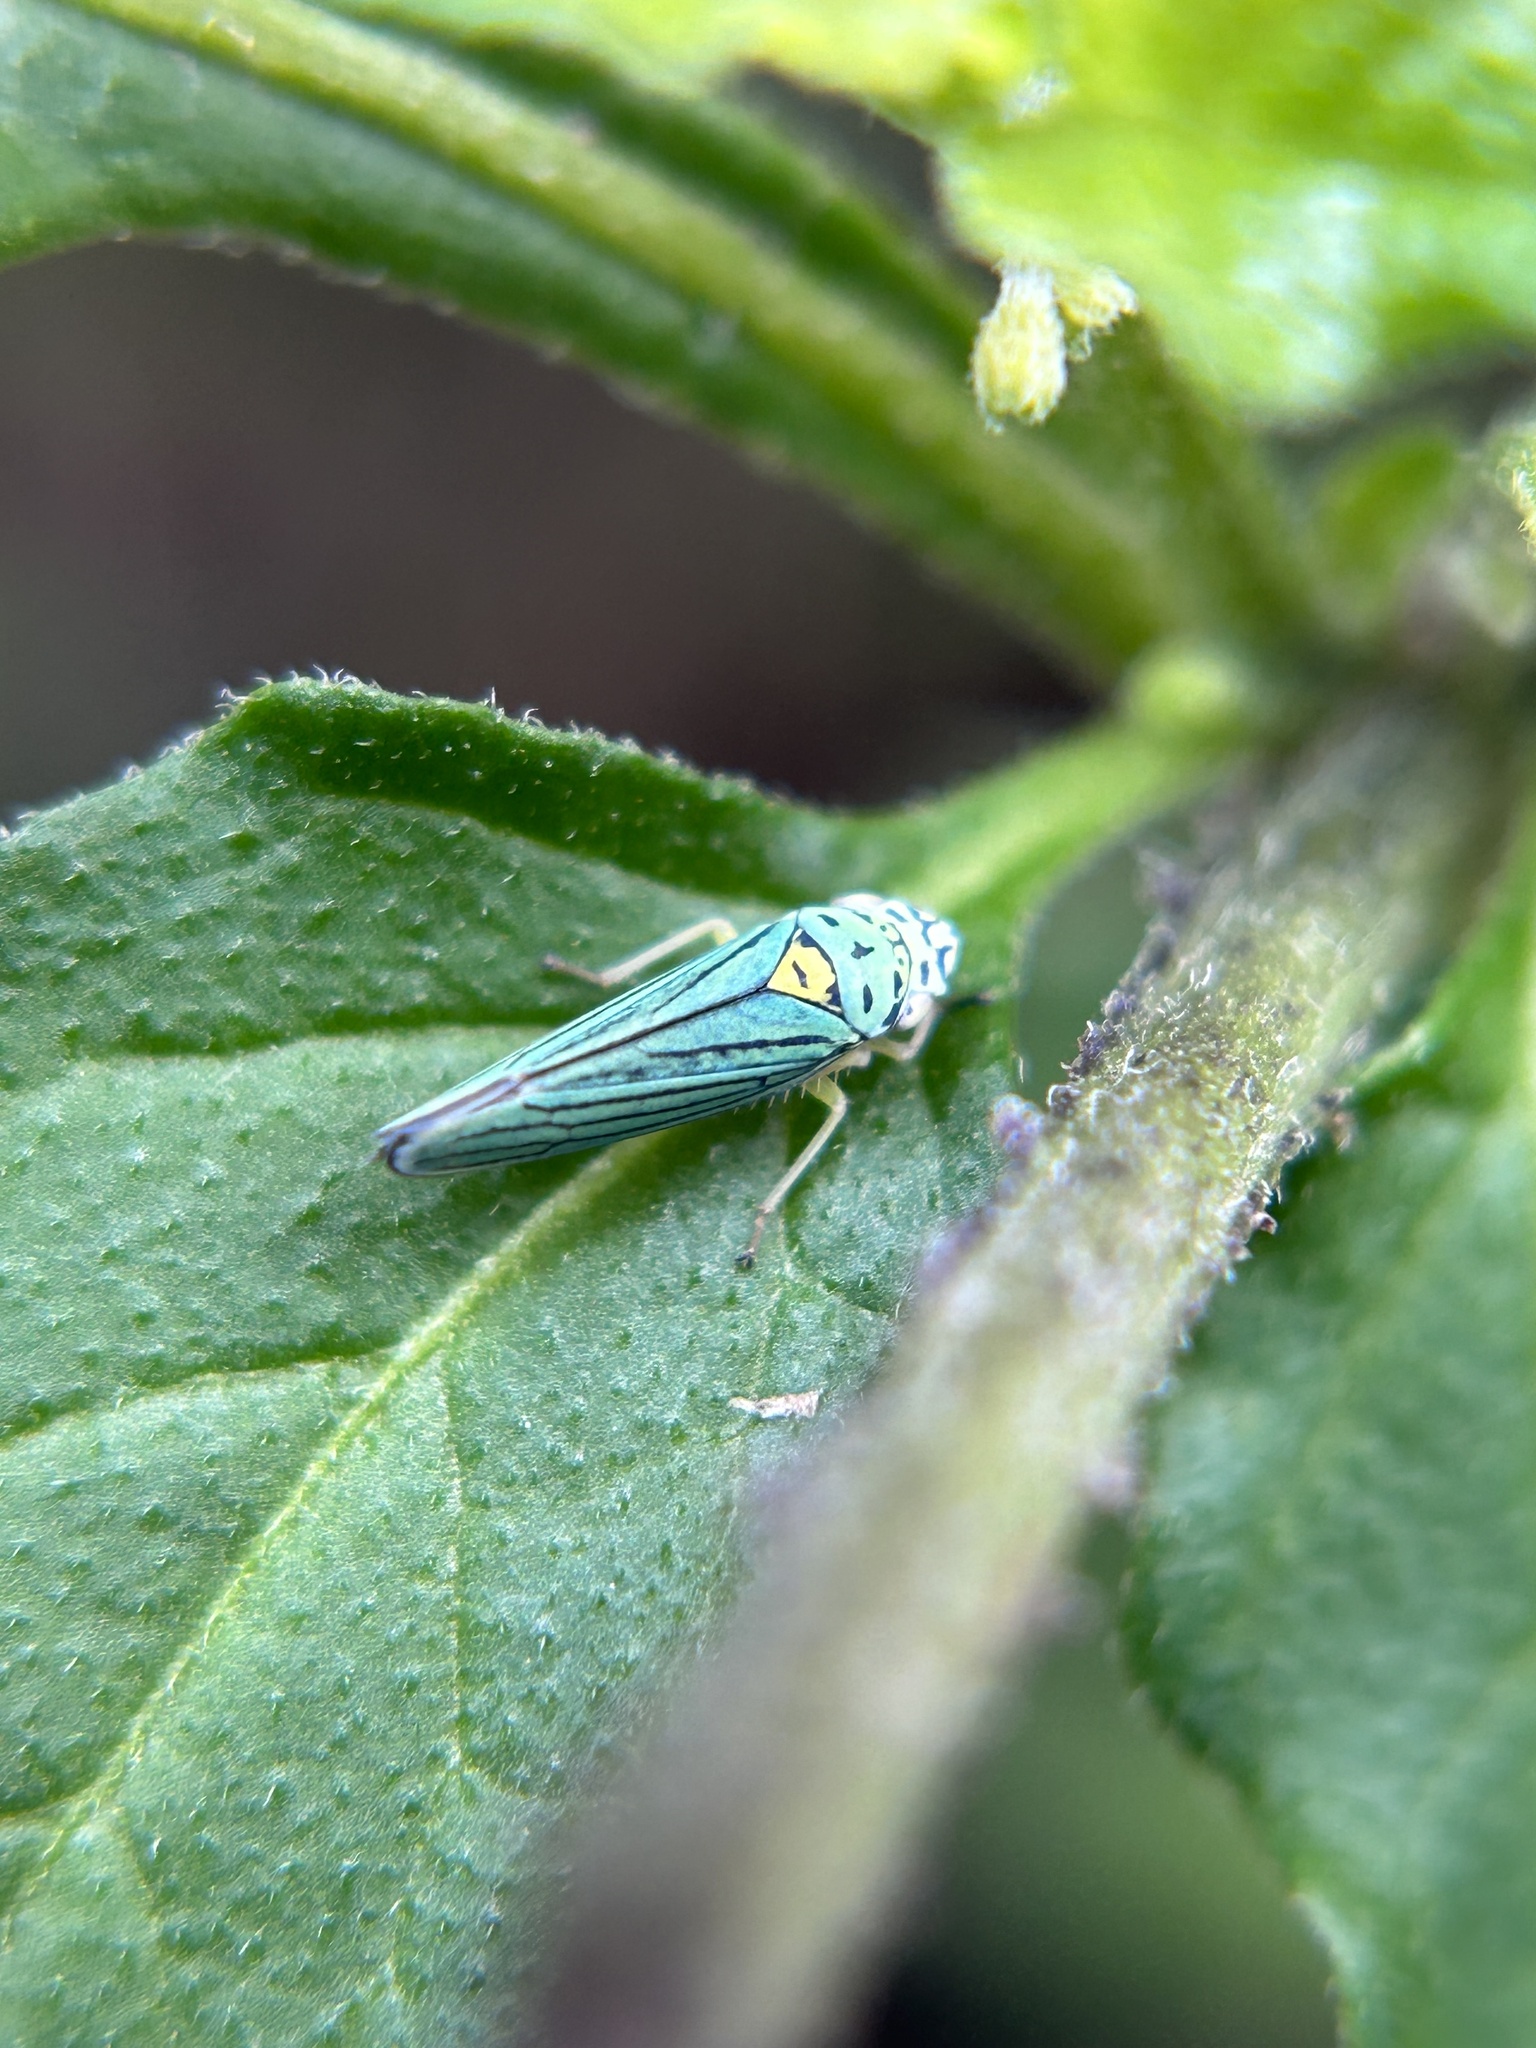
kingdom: Animalia
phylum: Arthropoda
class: Insecta
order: Hemiptera
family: Cicadellidae
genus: Graphocephala
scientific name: Graphocephala atropunctata
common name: Blue-green sharpshooter
